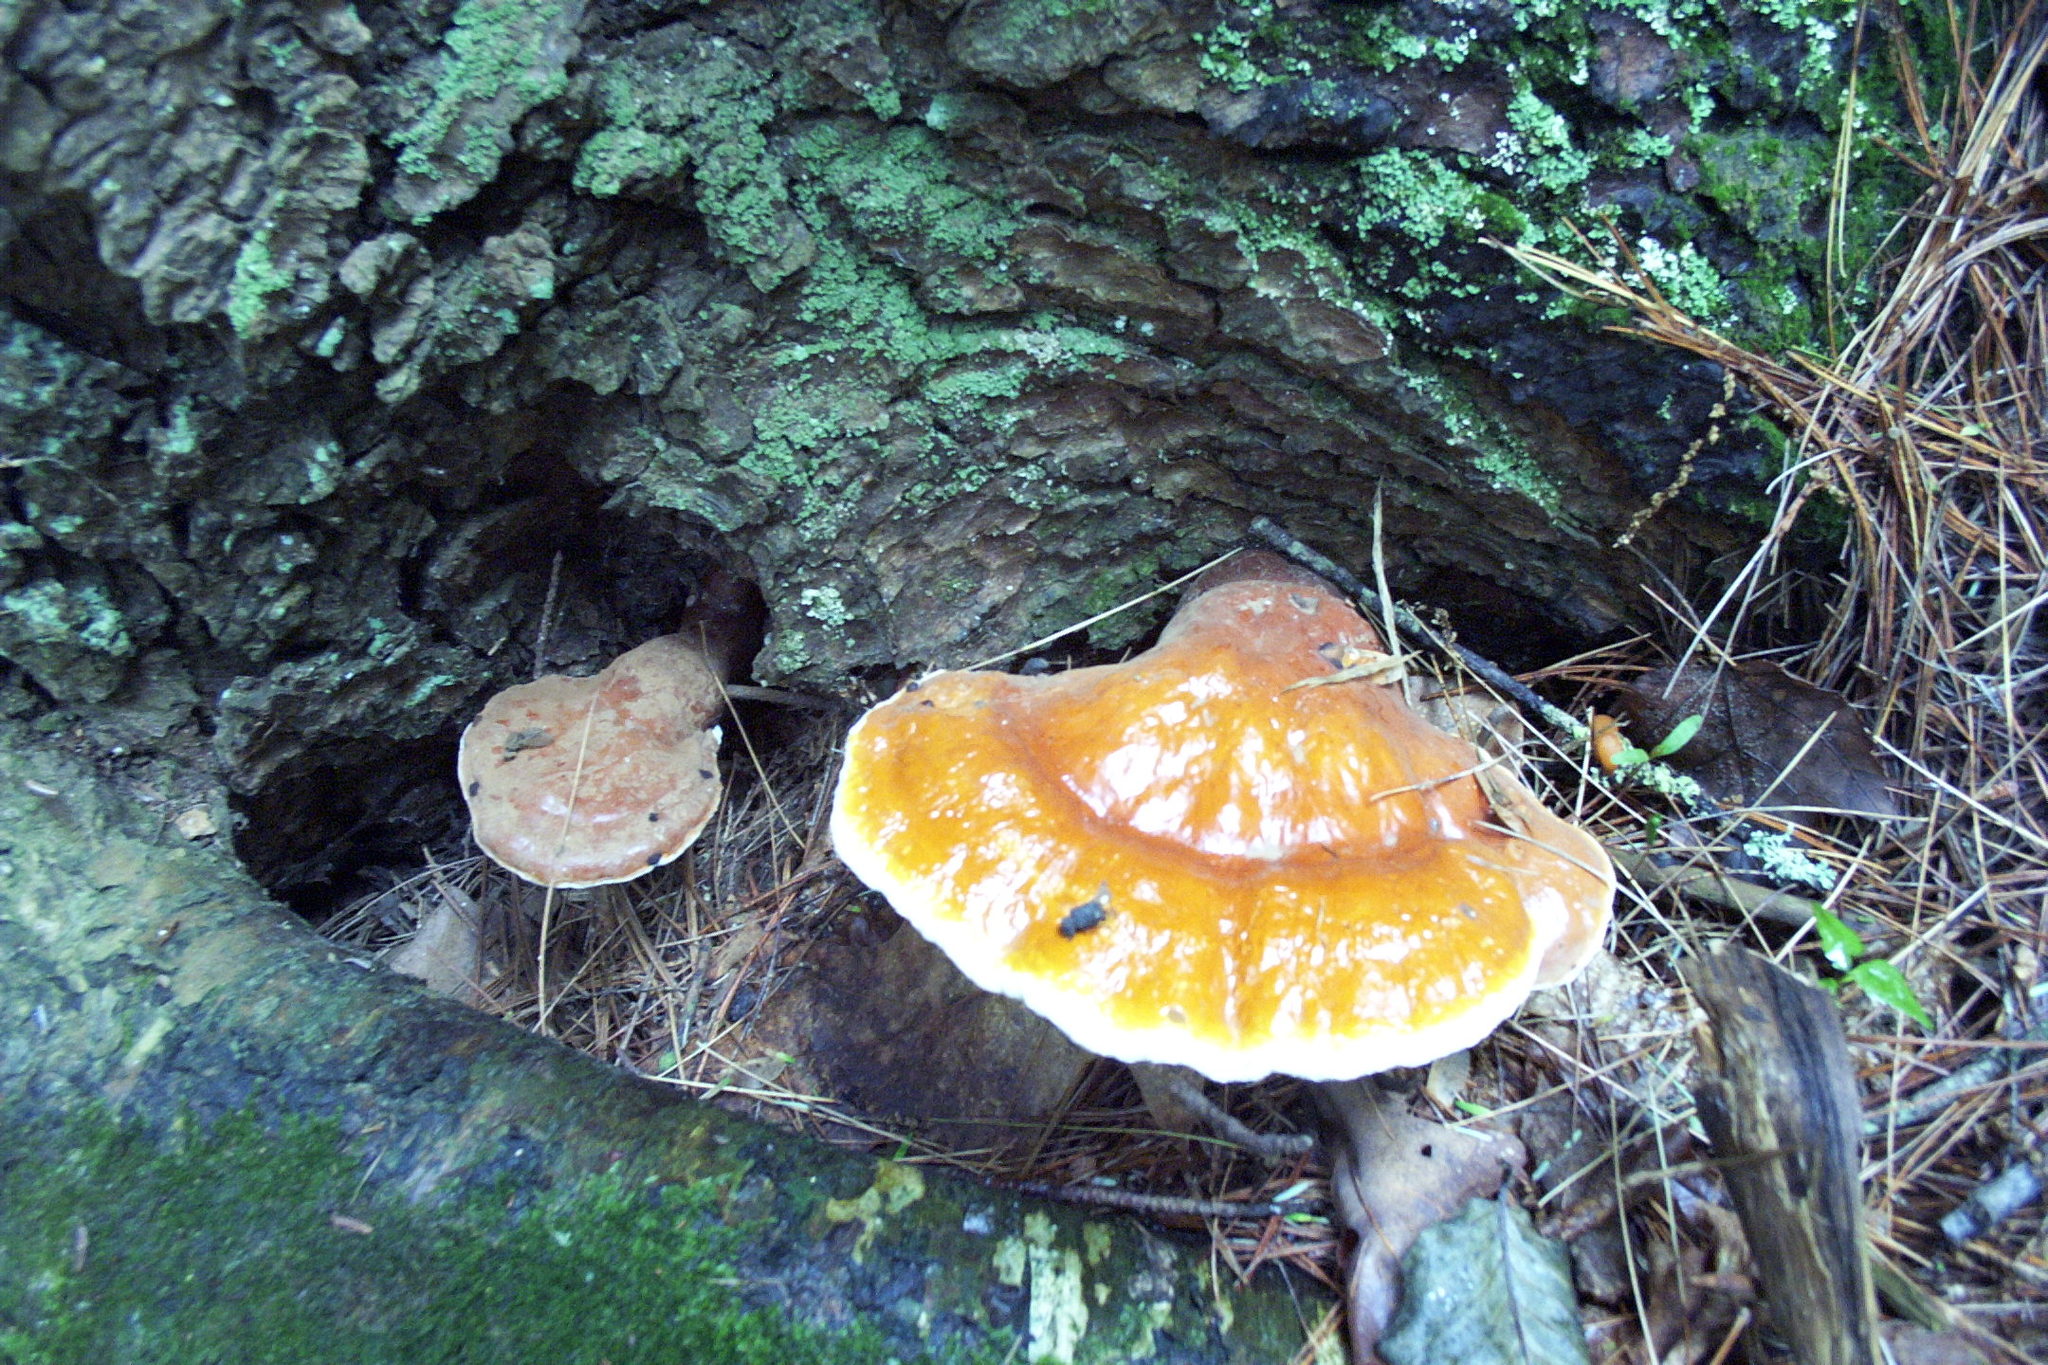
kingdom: Fungi
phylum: Basidiomycota
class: Agaricomycetes
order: Polyporales
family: Polyporaceae
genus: Ganoderma
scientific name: Ganoderma tsugae
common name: Hemlock varnish shelf
